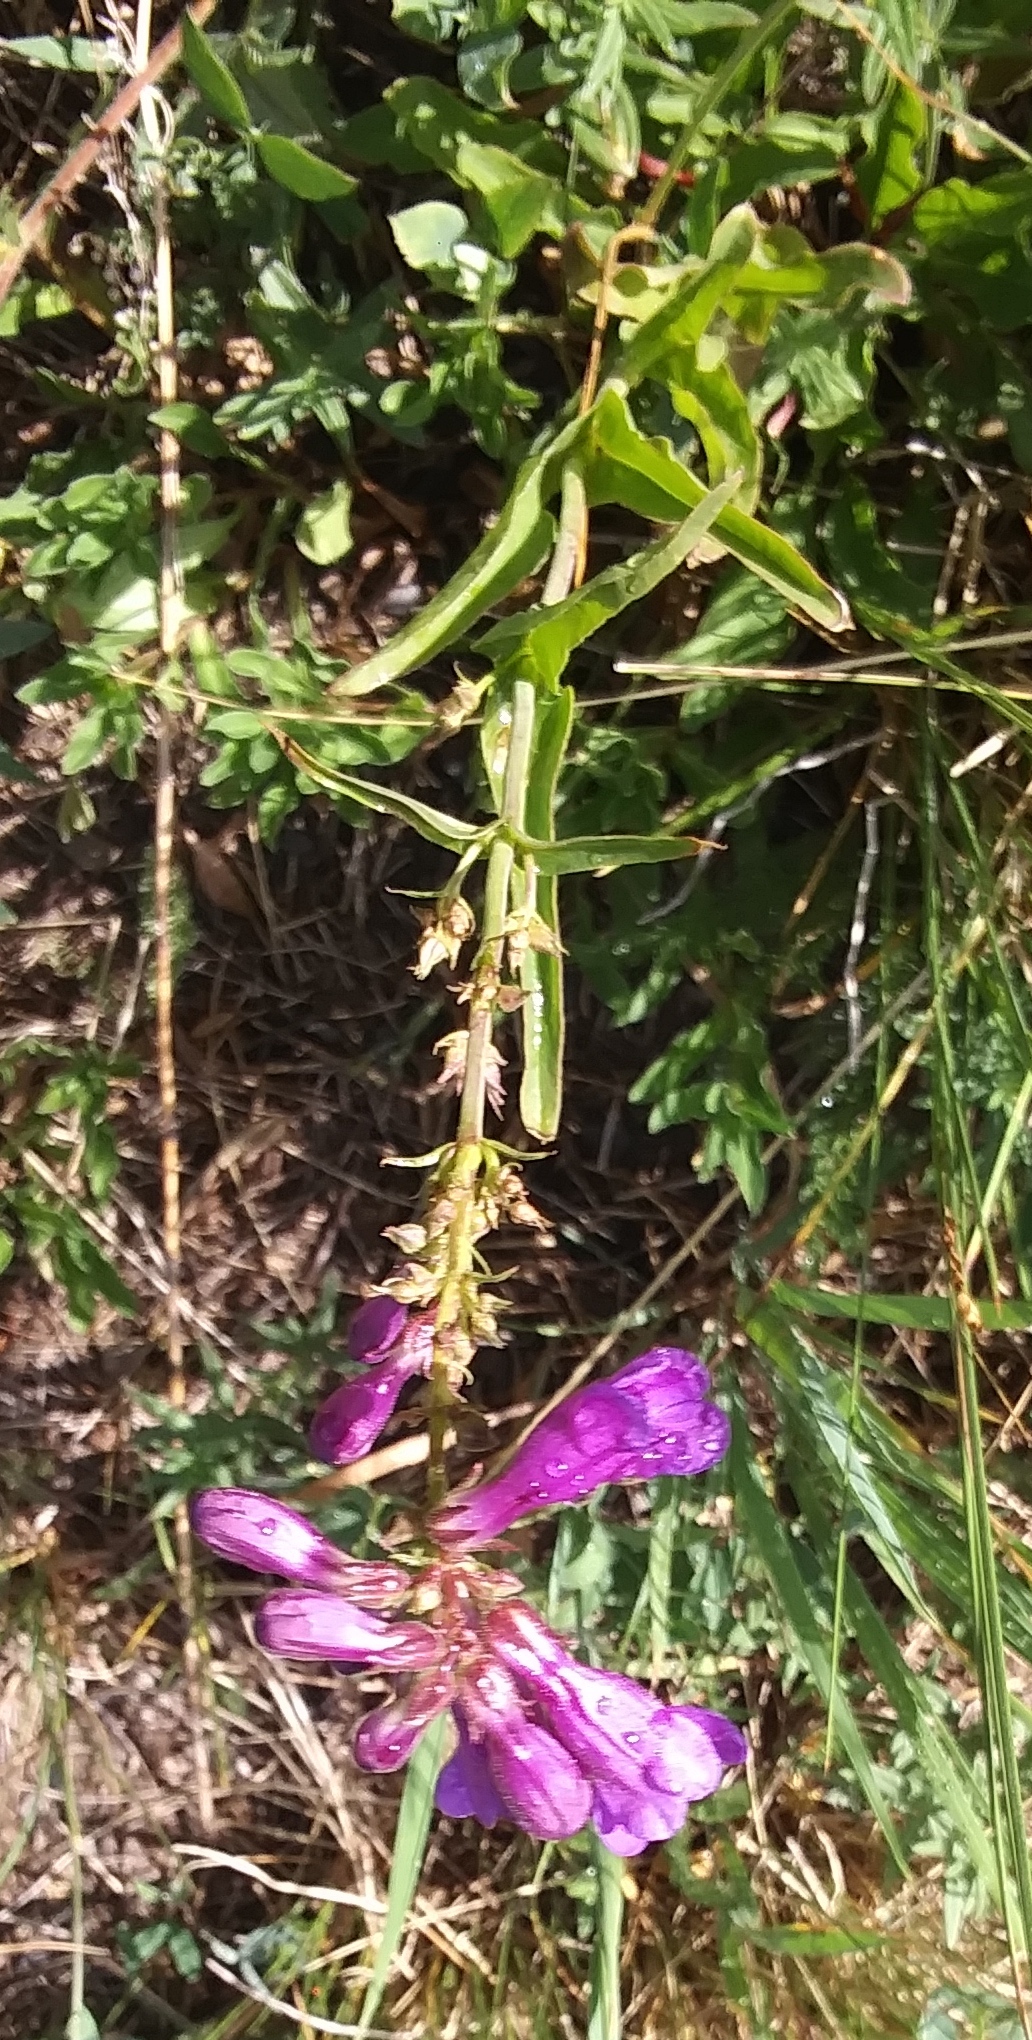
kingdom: Plantae
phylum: Tracheophyta
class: Magnoliopsida
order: Lamiales
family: Plantaginaceae
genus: Penstemon
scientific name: Penstemon
